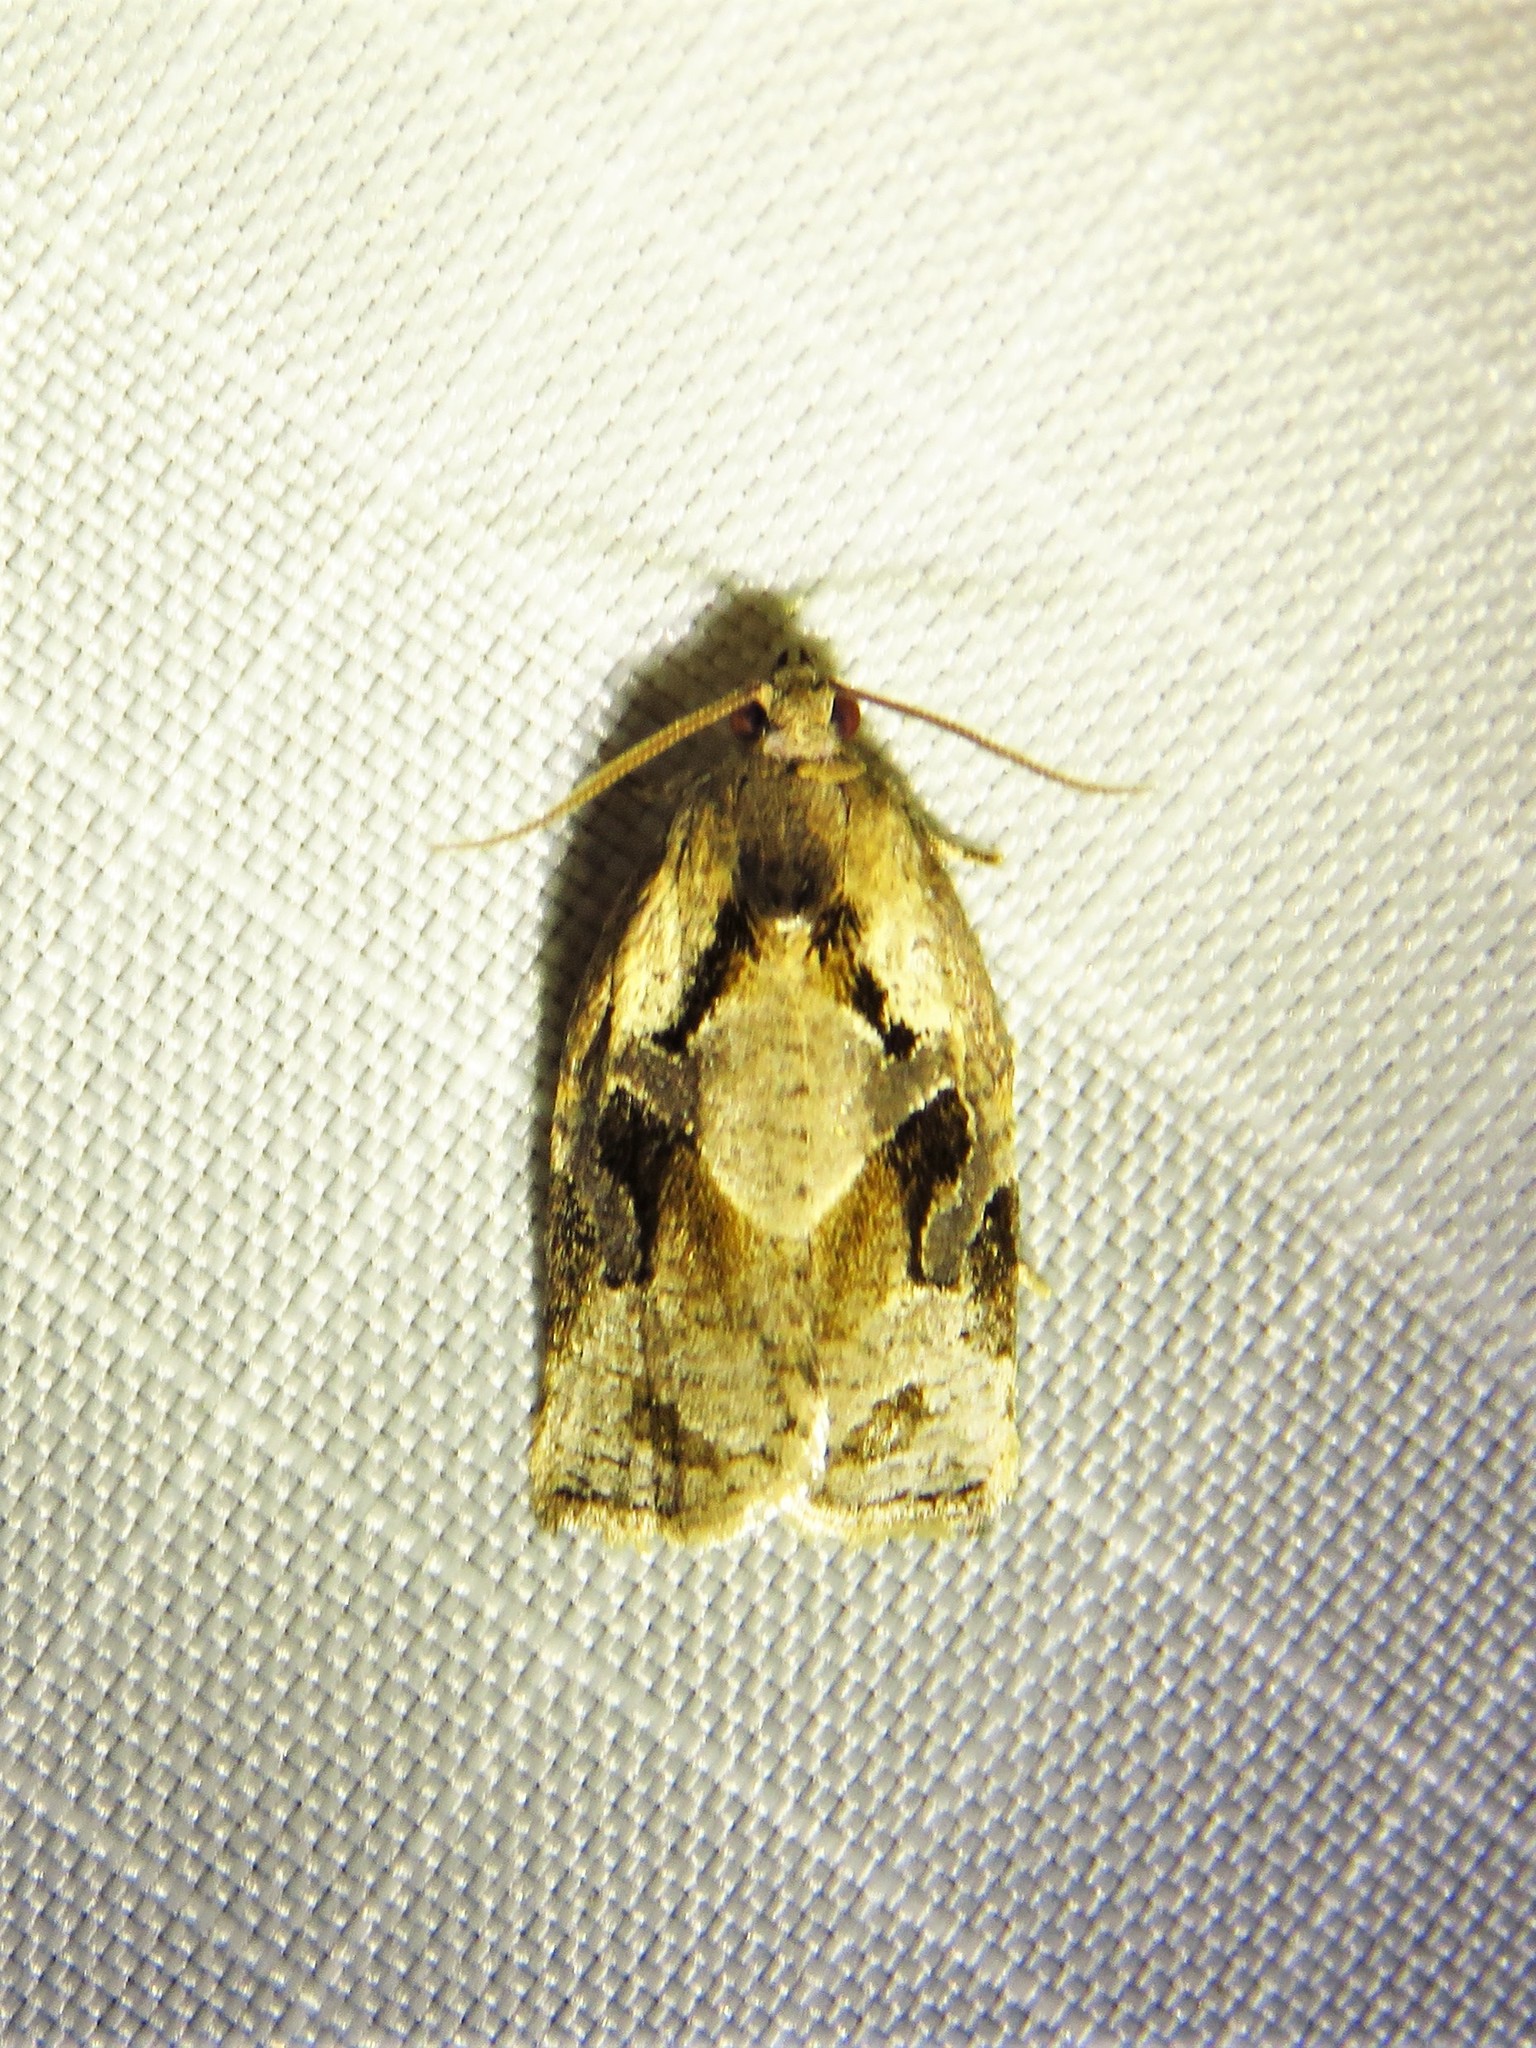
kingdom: Animalia
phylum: Arthropoda
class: Insecta
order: Lepidoptera
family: Tortricidae
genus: Archips
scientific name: Archips grisea
